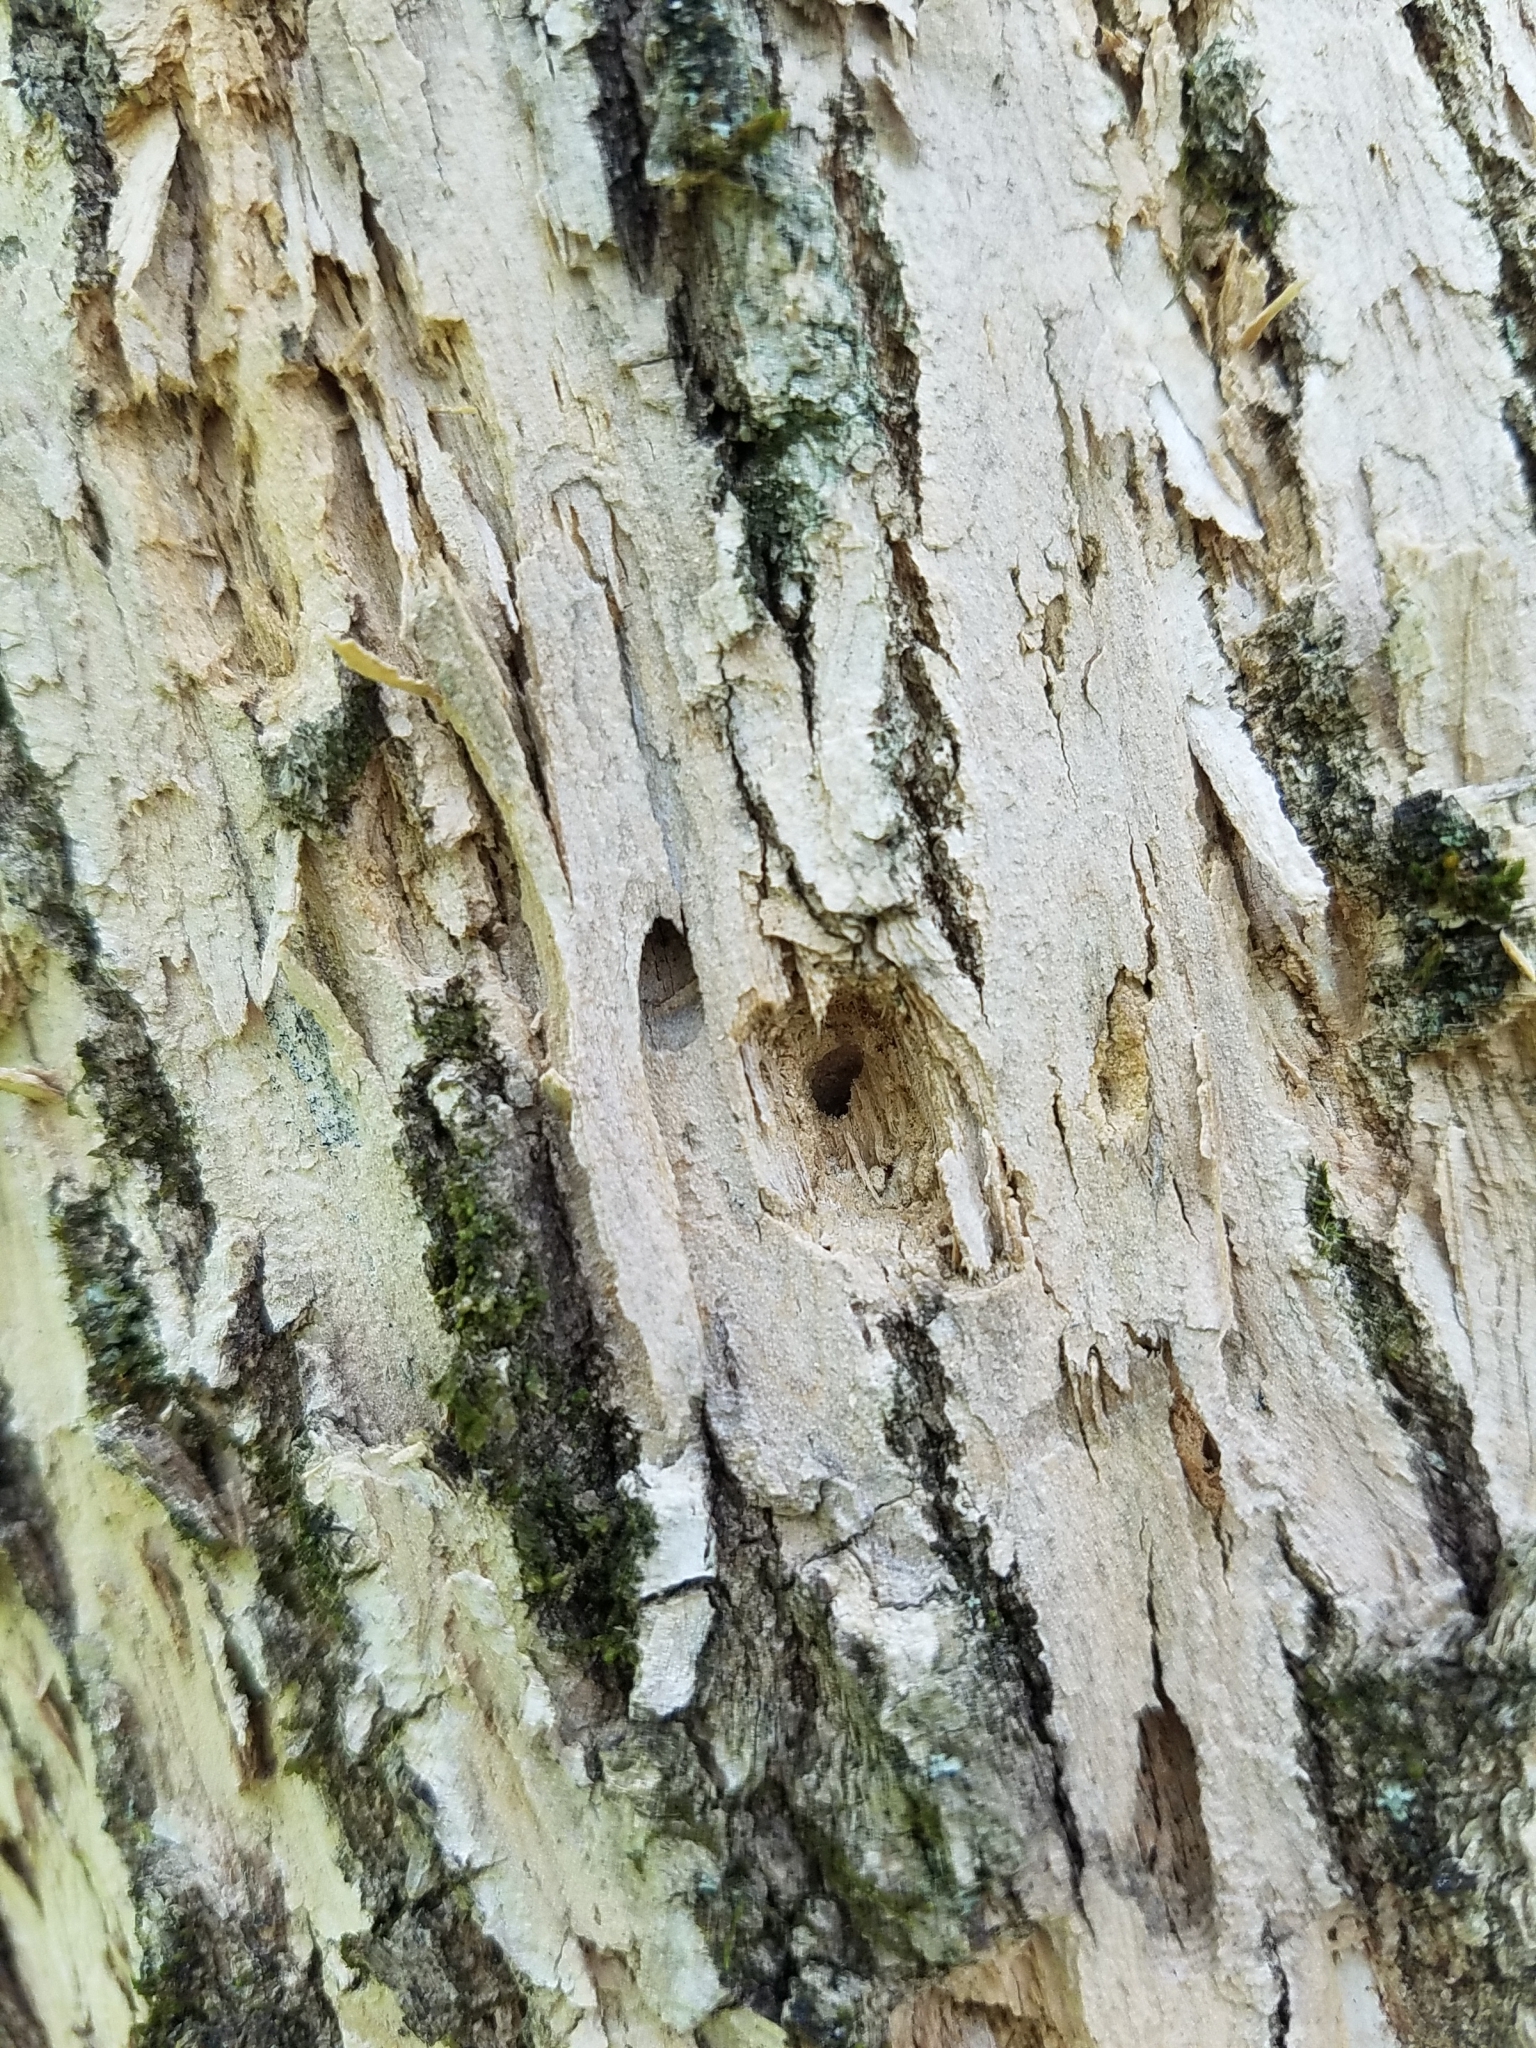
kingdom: Animalia
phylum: Arthropoda
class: Insecta
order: Coleoptera
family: Buprestidae
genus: Agrilus
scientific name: Agrilus planipennis
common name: Emerald ash borer
